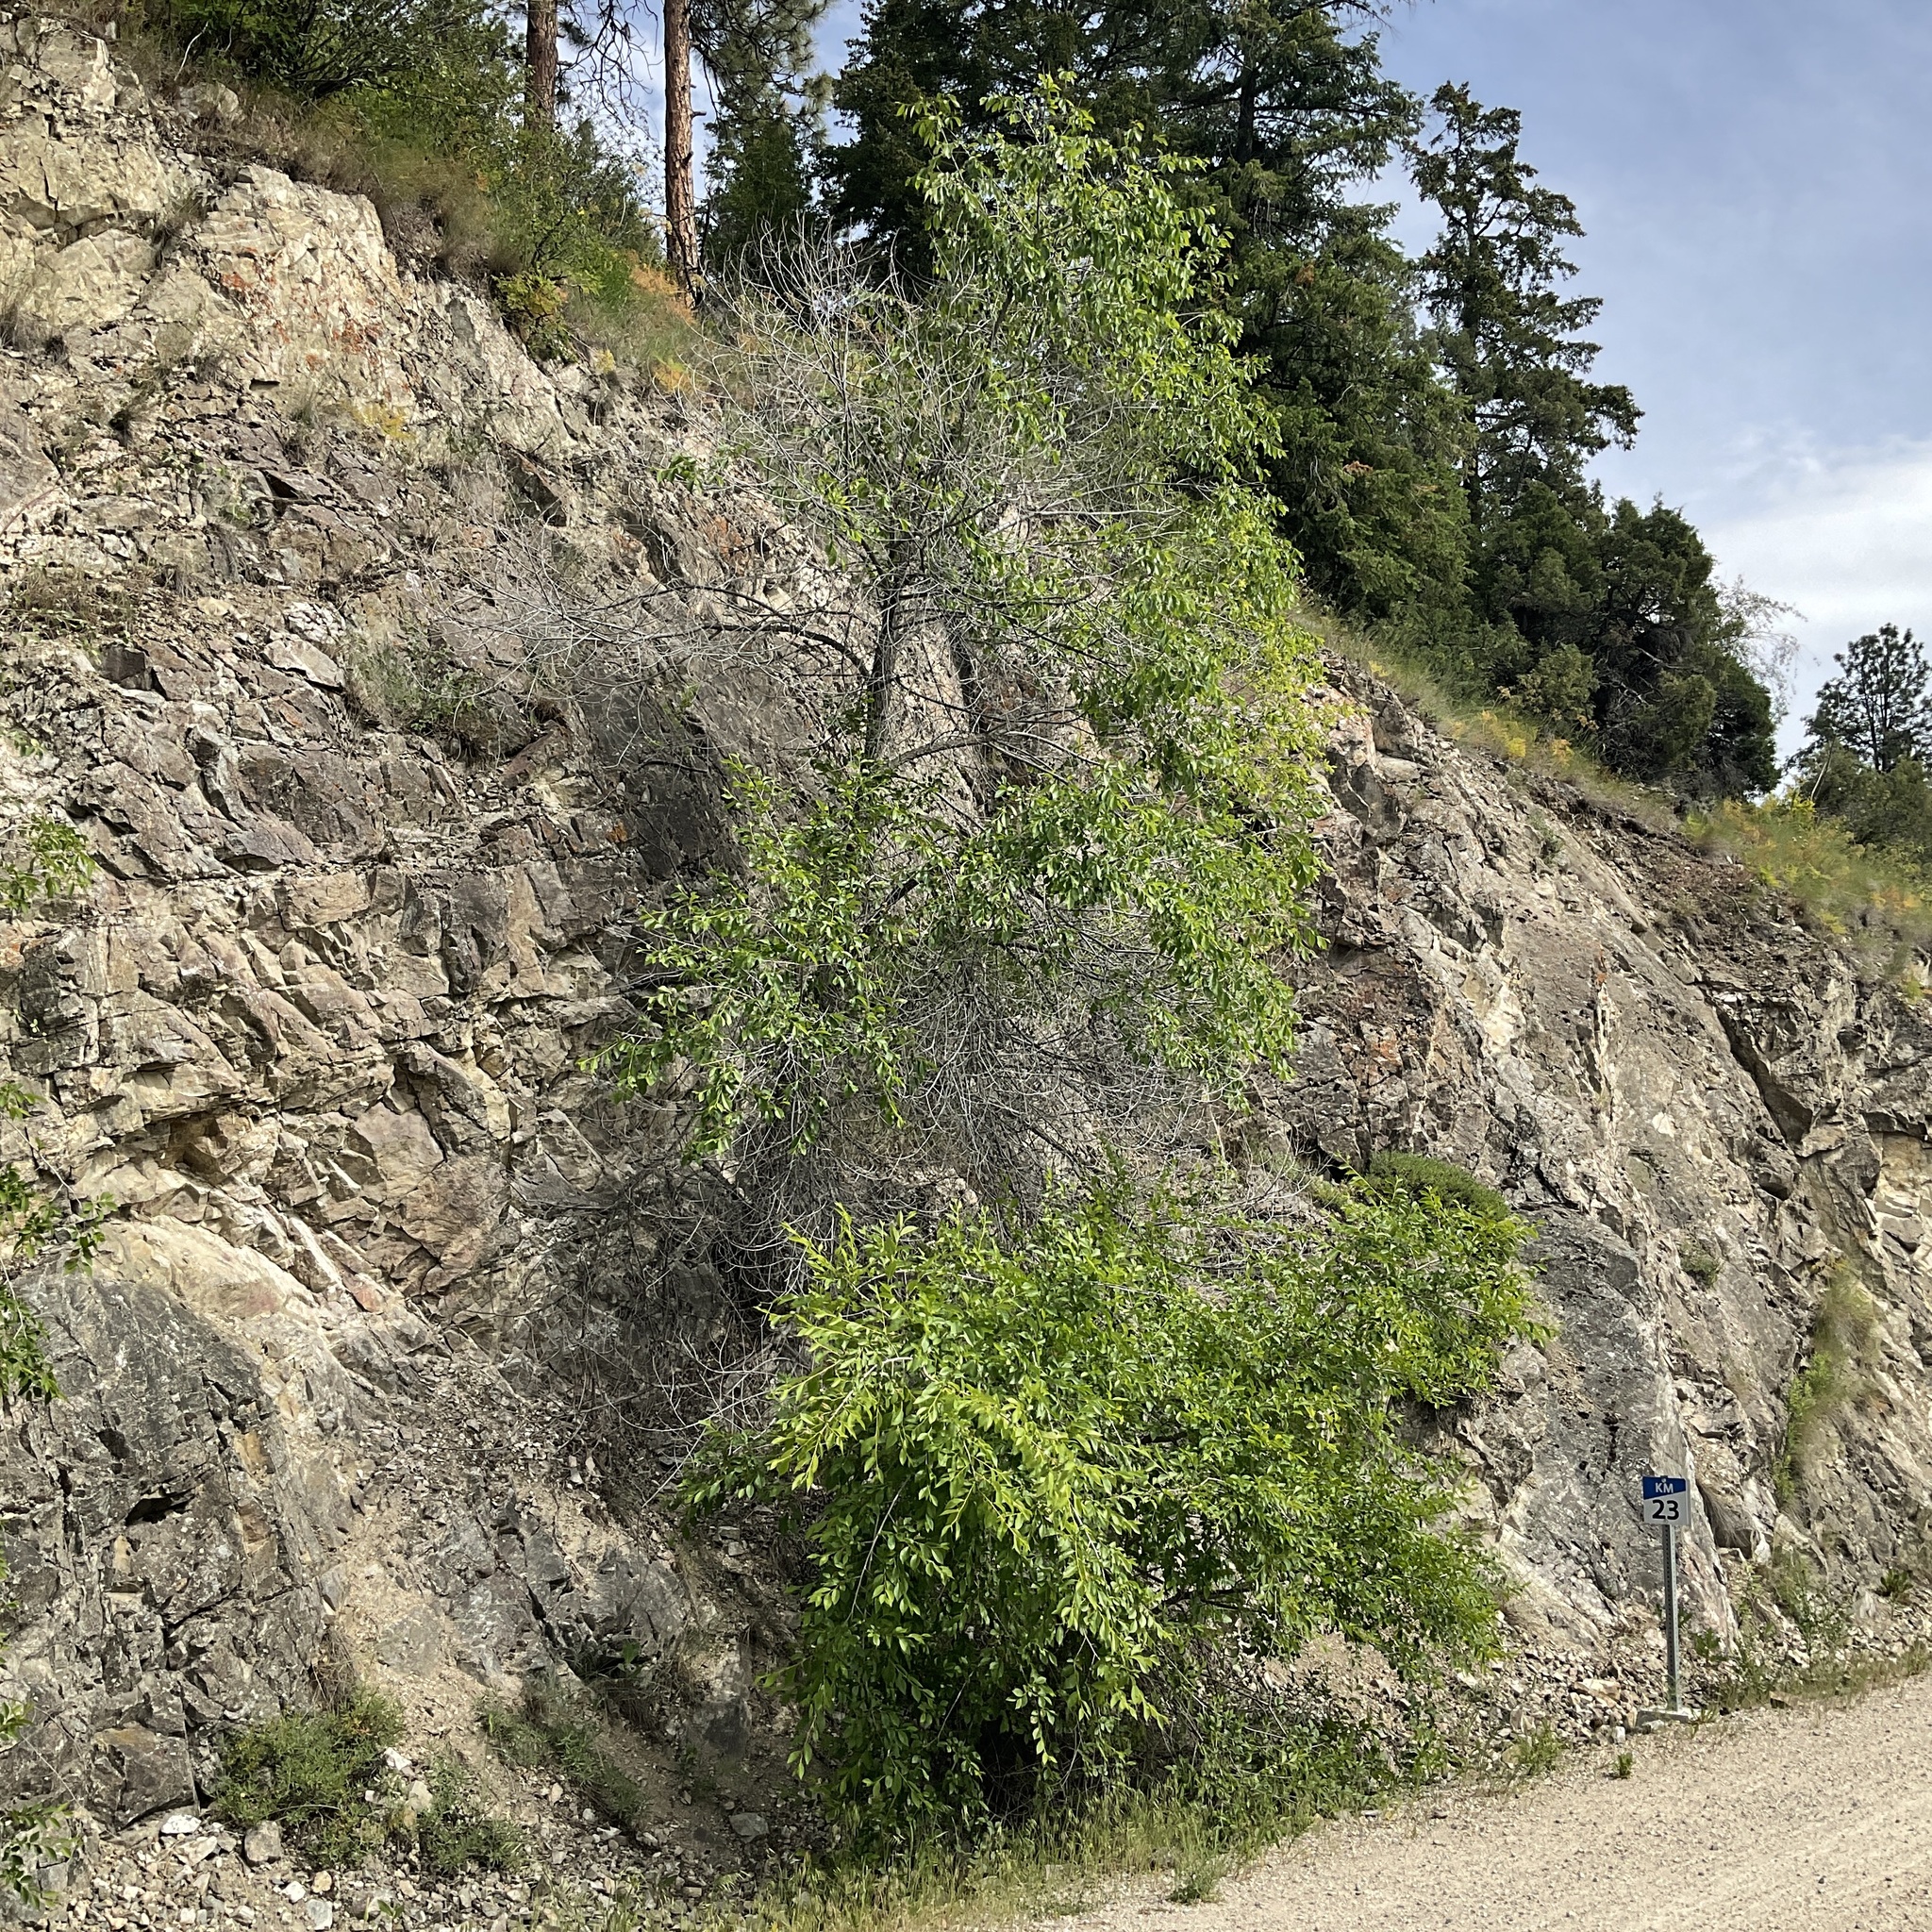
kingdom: Plantae
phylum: Tracheophyta
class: Magnoliopsida
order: Rosales
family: Ulmaceae
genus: Ulmus
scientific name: Ulmus pumila
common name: Siberian elm
